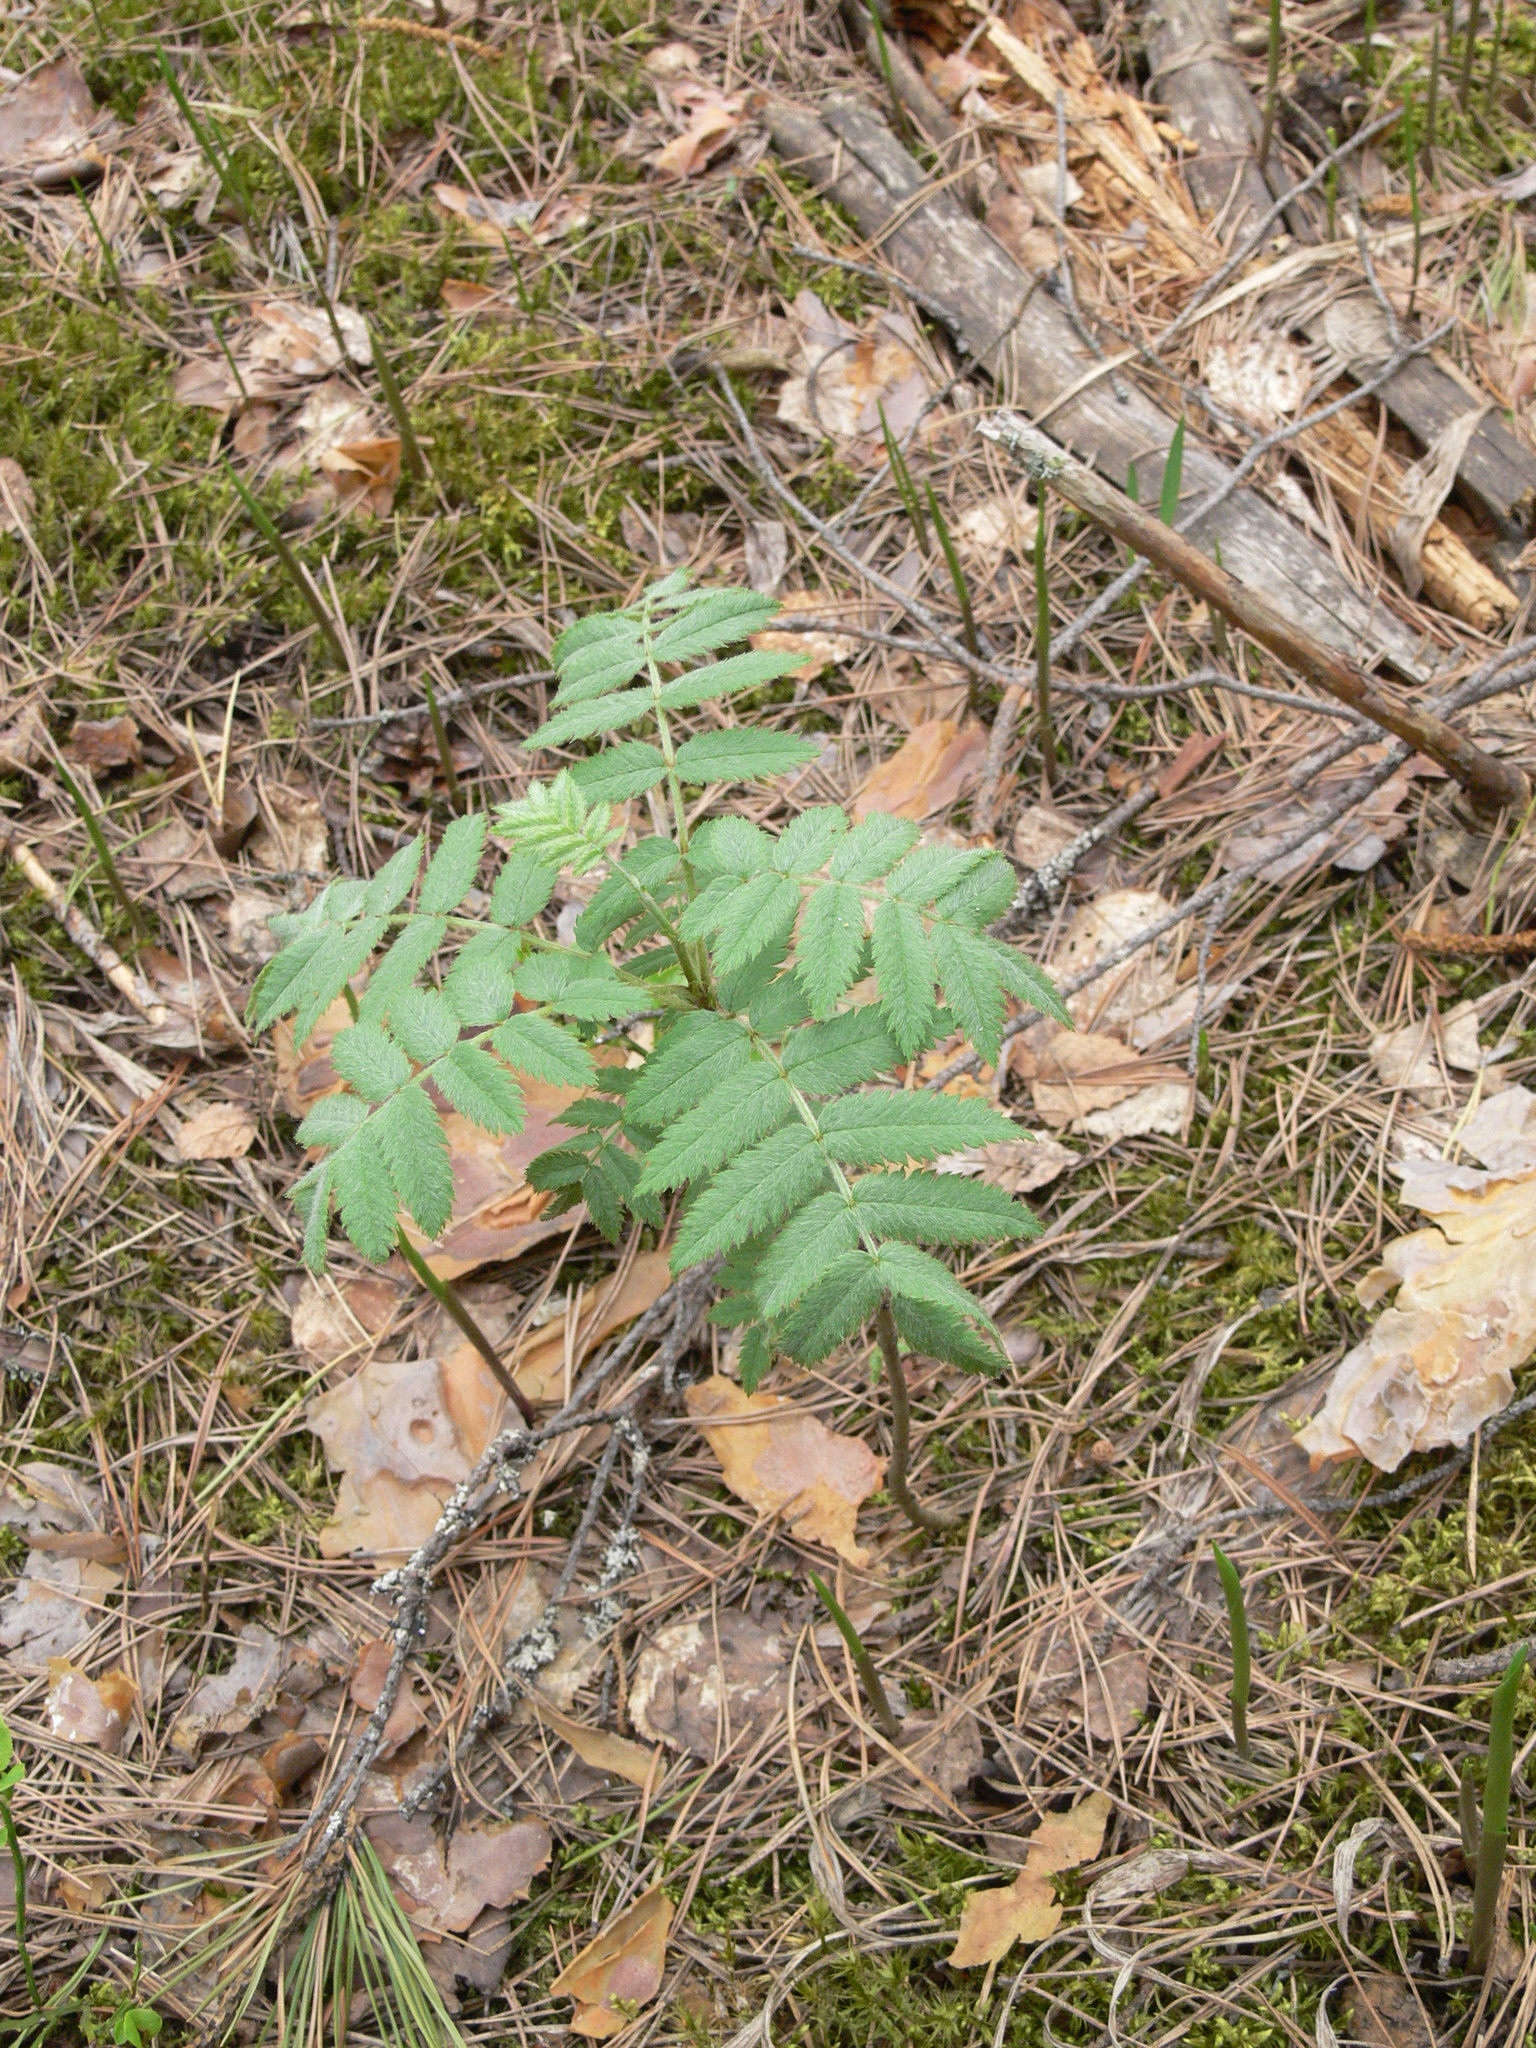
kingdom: Plantae
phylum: Tracheophyta
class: Magnoliopsida
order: Rosales
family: Rosaceae
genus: Sorbus
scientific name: Sorbus aucuparia
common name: Rowan
